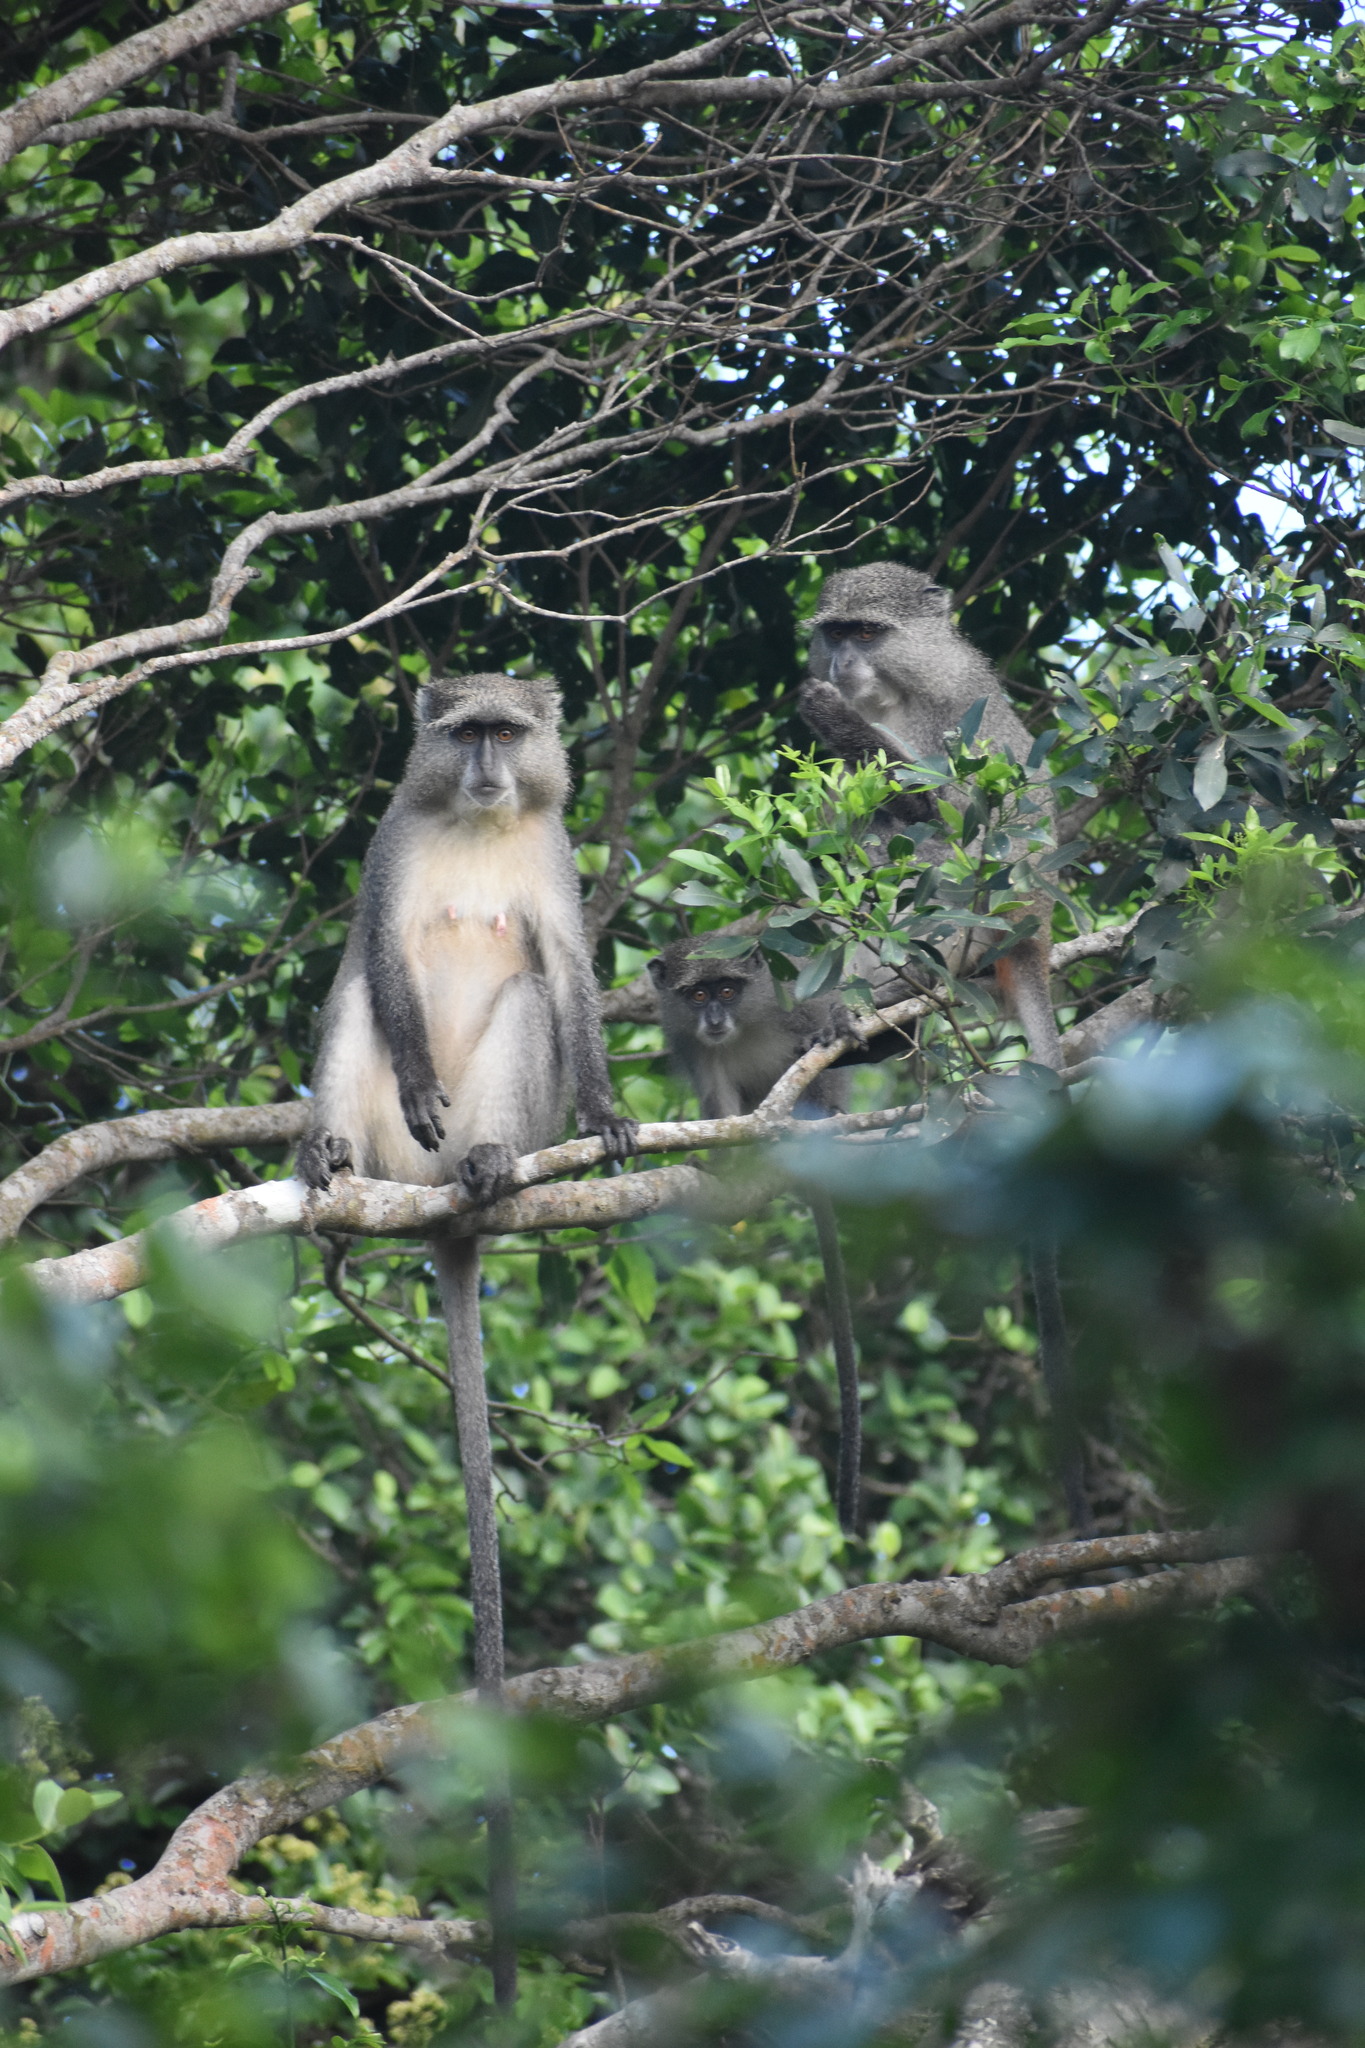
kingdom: Animalia
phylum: Chordata
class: Mammalia
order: Primates
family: Cercopithecidae
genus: Cercopithecus
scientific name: Cercopithecus mitis
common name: Blue monkey
